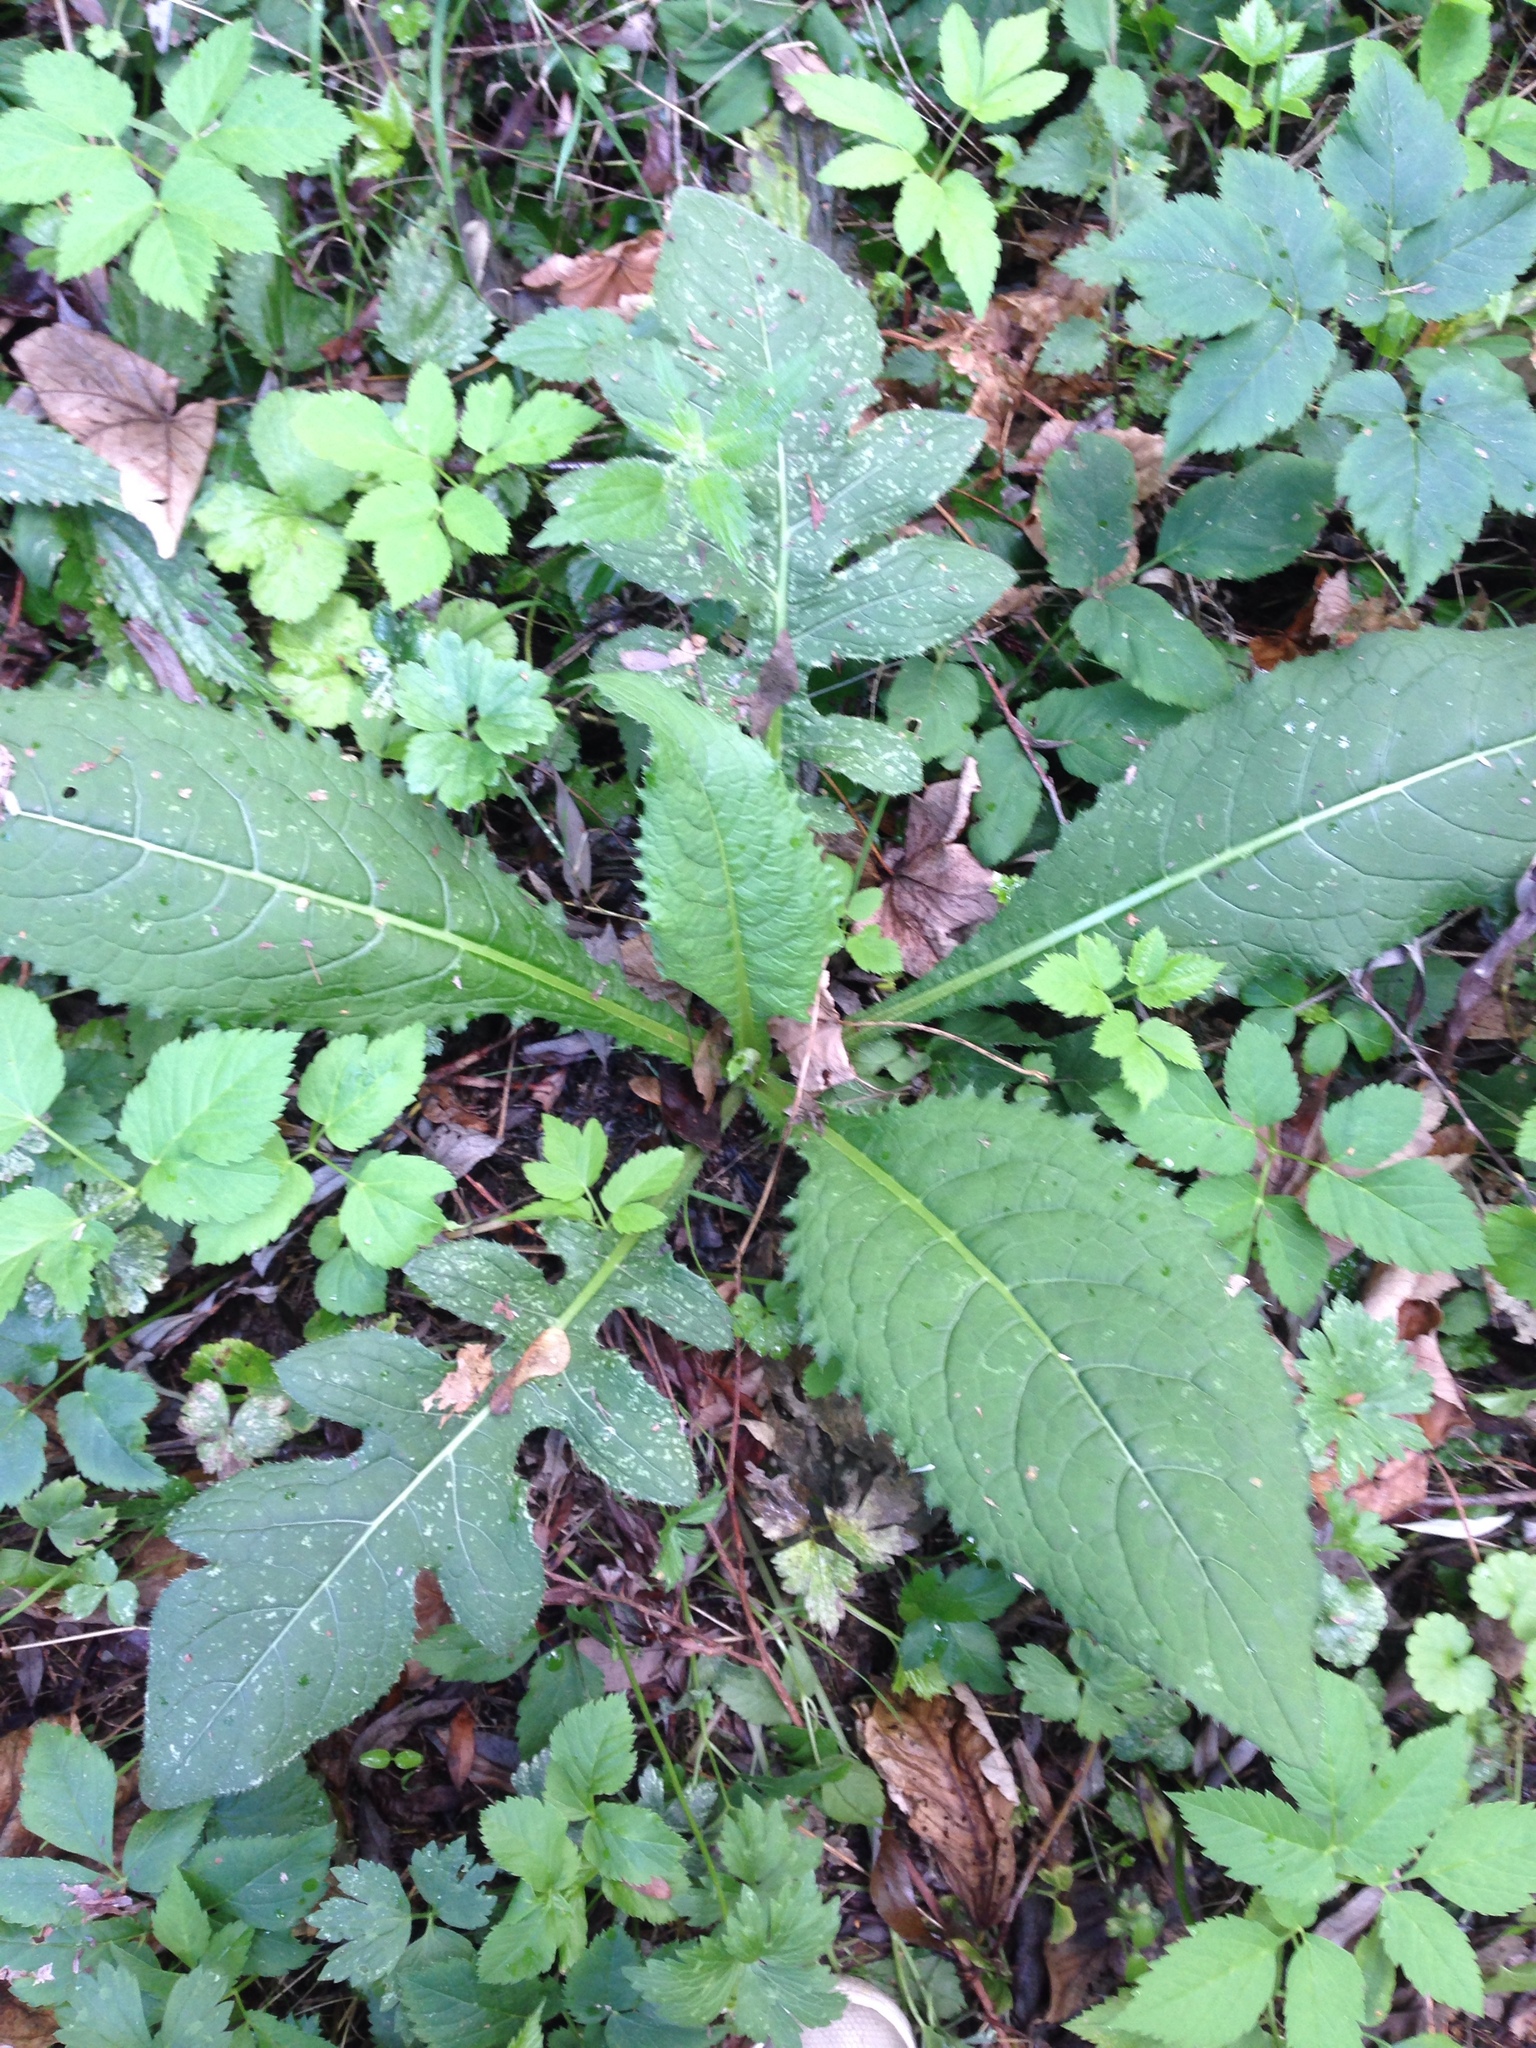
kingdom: Plantae
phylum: Tracheophyta
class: Magnoliopsida
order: Asterales
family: Asteraceae
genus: Cirsium
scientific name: Cirsium oleraceum
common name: Cabbage thistle
